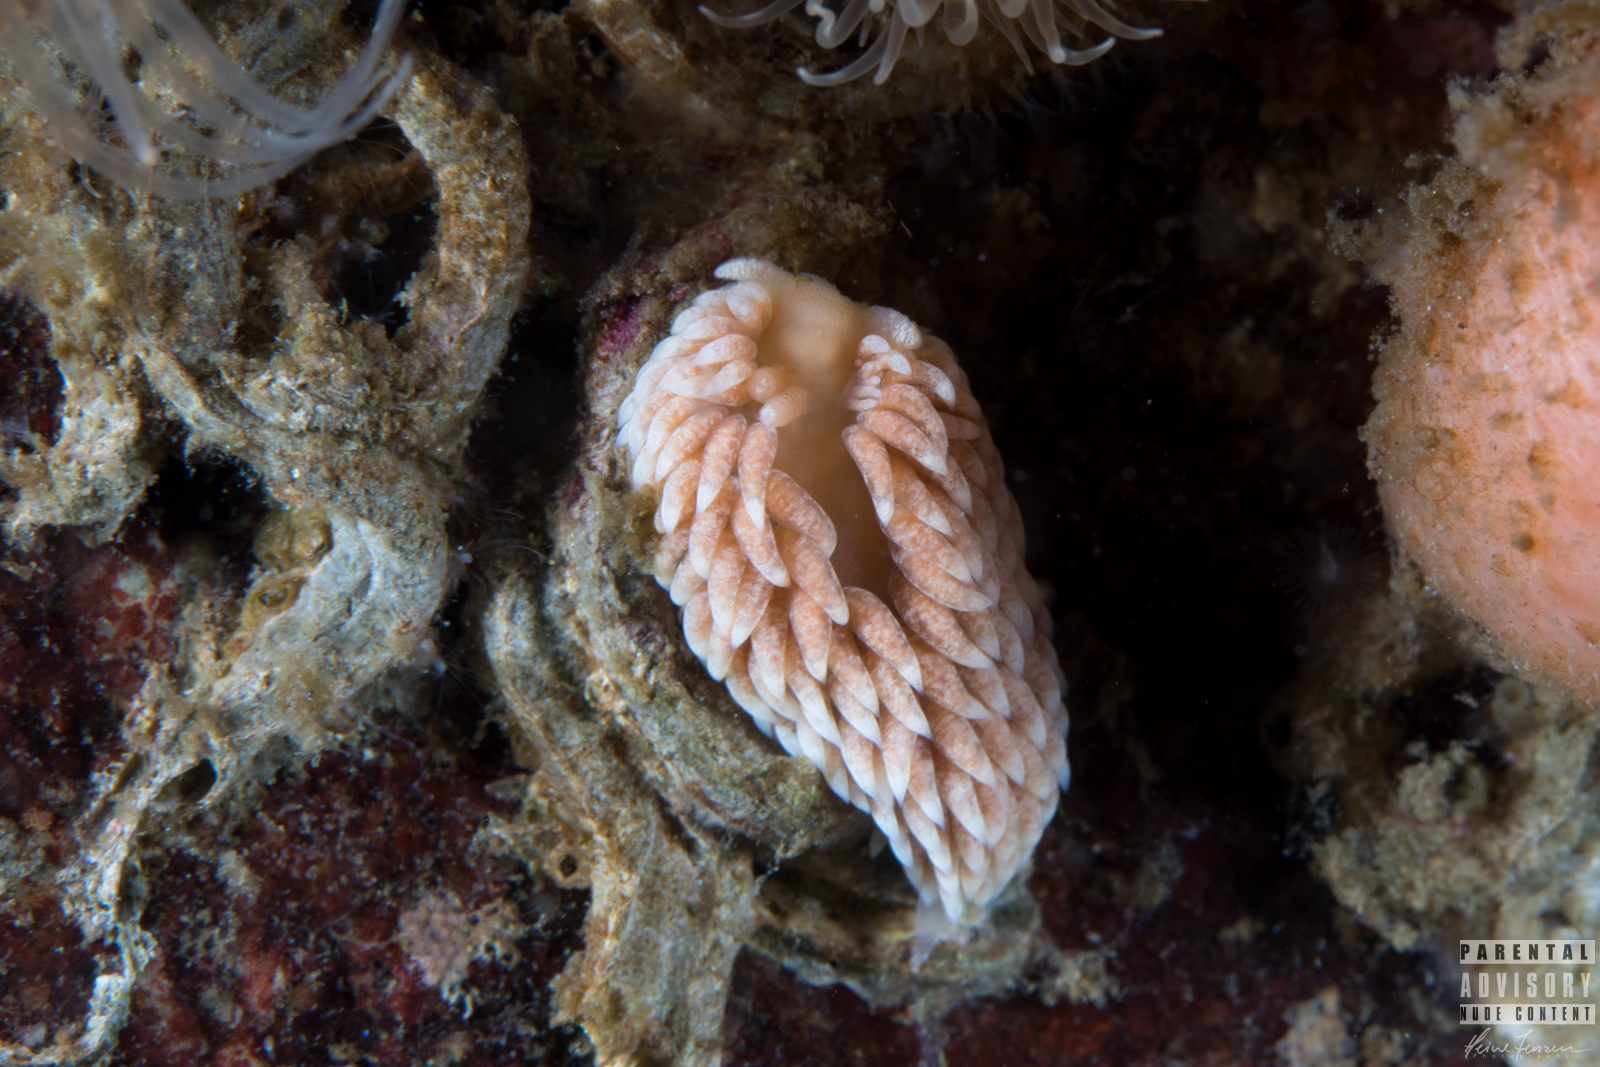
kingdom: Animalia
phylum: Mollusca
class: Gastropoda
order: Nudibranchia
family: Aeolidiidae
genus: Aeolidiella
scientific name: Aeolidiella glauca
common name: Orange-brown aeolid
